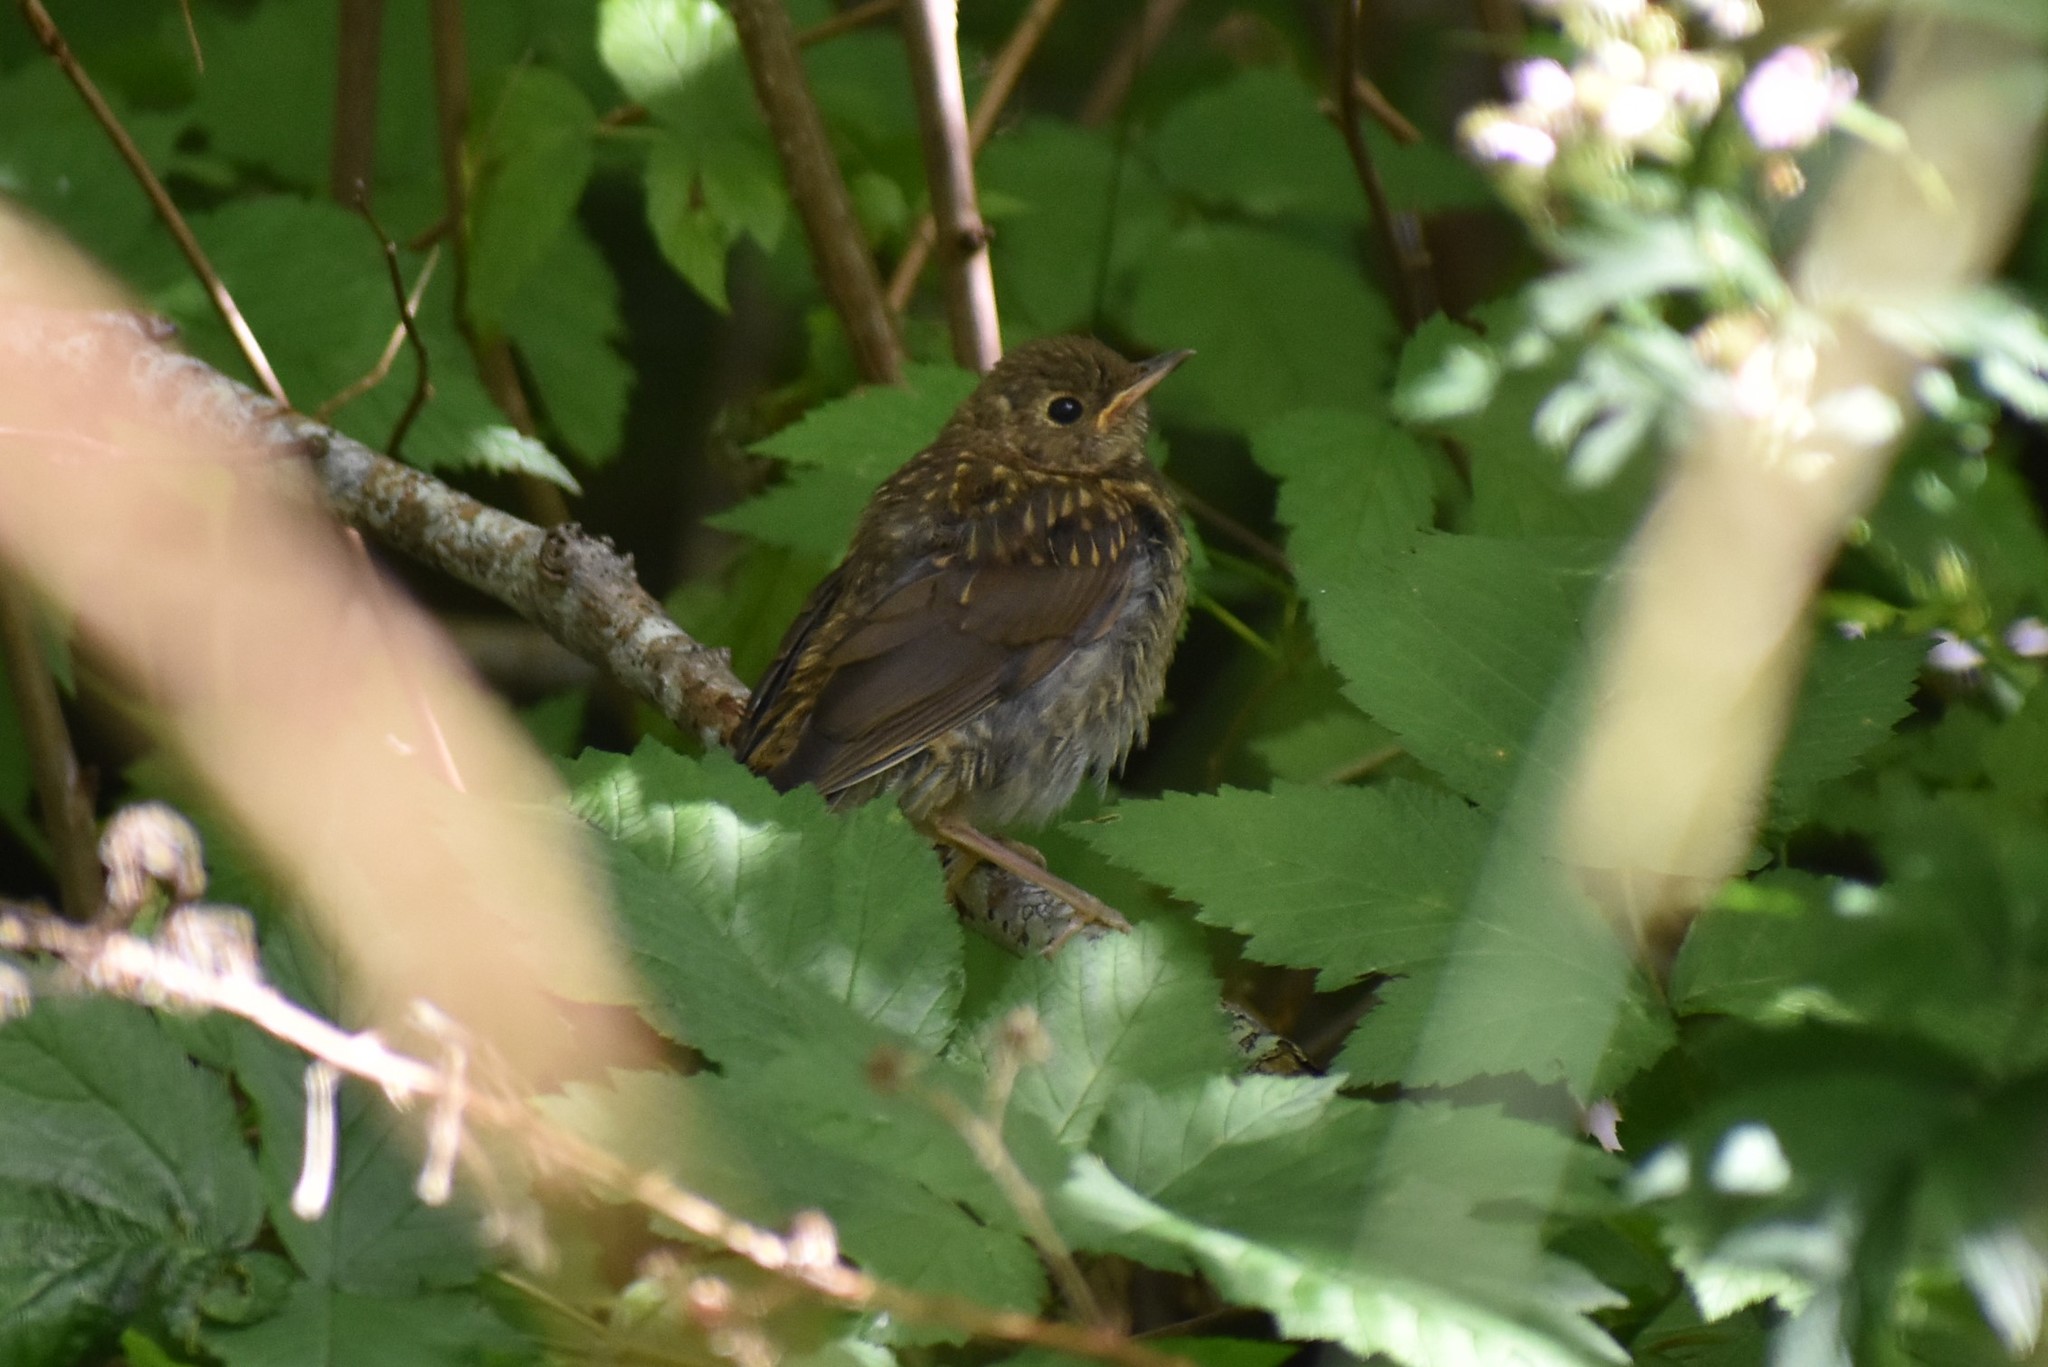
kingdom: Animalia
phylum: Chordata
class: Aves
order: Passeriformes
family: Turdidae
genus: Catharus
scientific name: Catharus ustulatus
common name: Swainson's thrush
